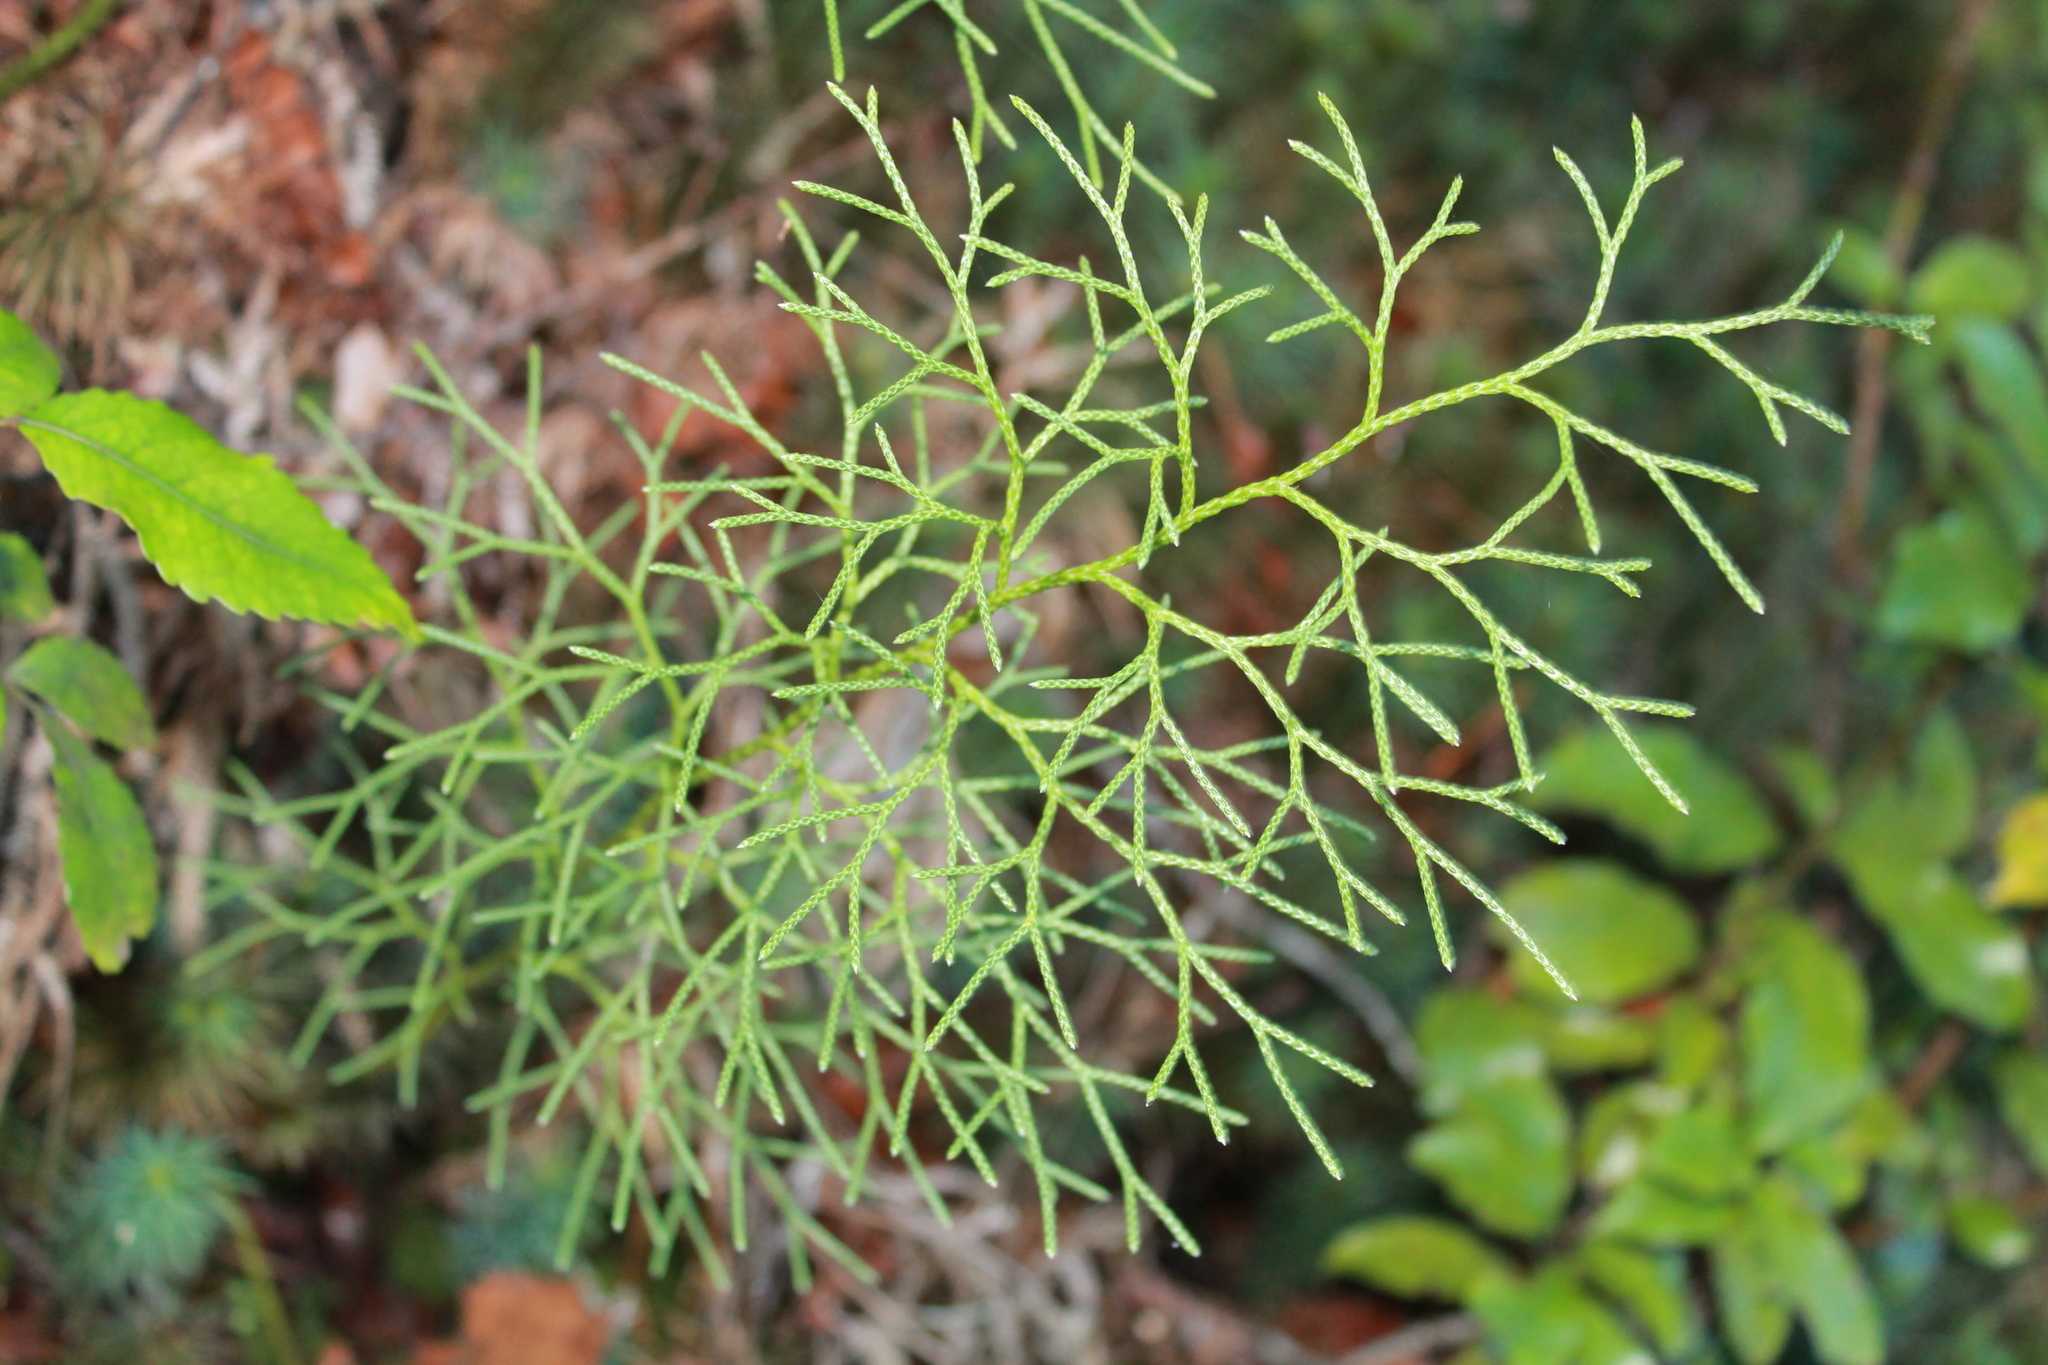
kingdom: Plantae
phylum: Tracheophyta
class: Lycopodiopsida
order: Lycopodiales
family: Lycopodiaceae
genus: Pseudolycopodium
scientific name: Pseudolycopodium densum
